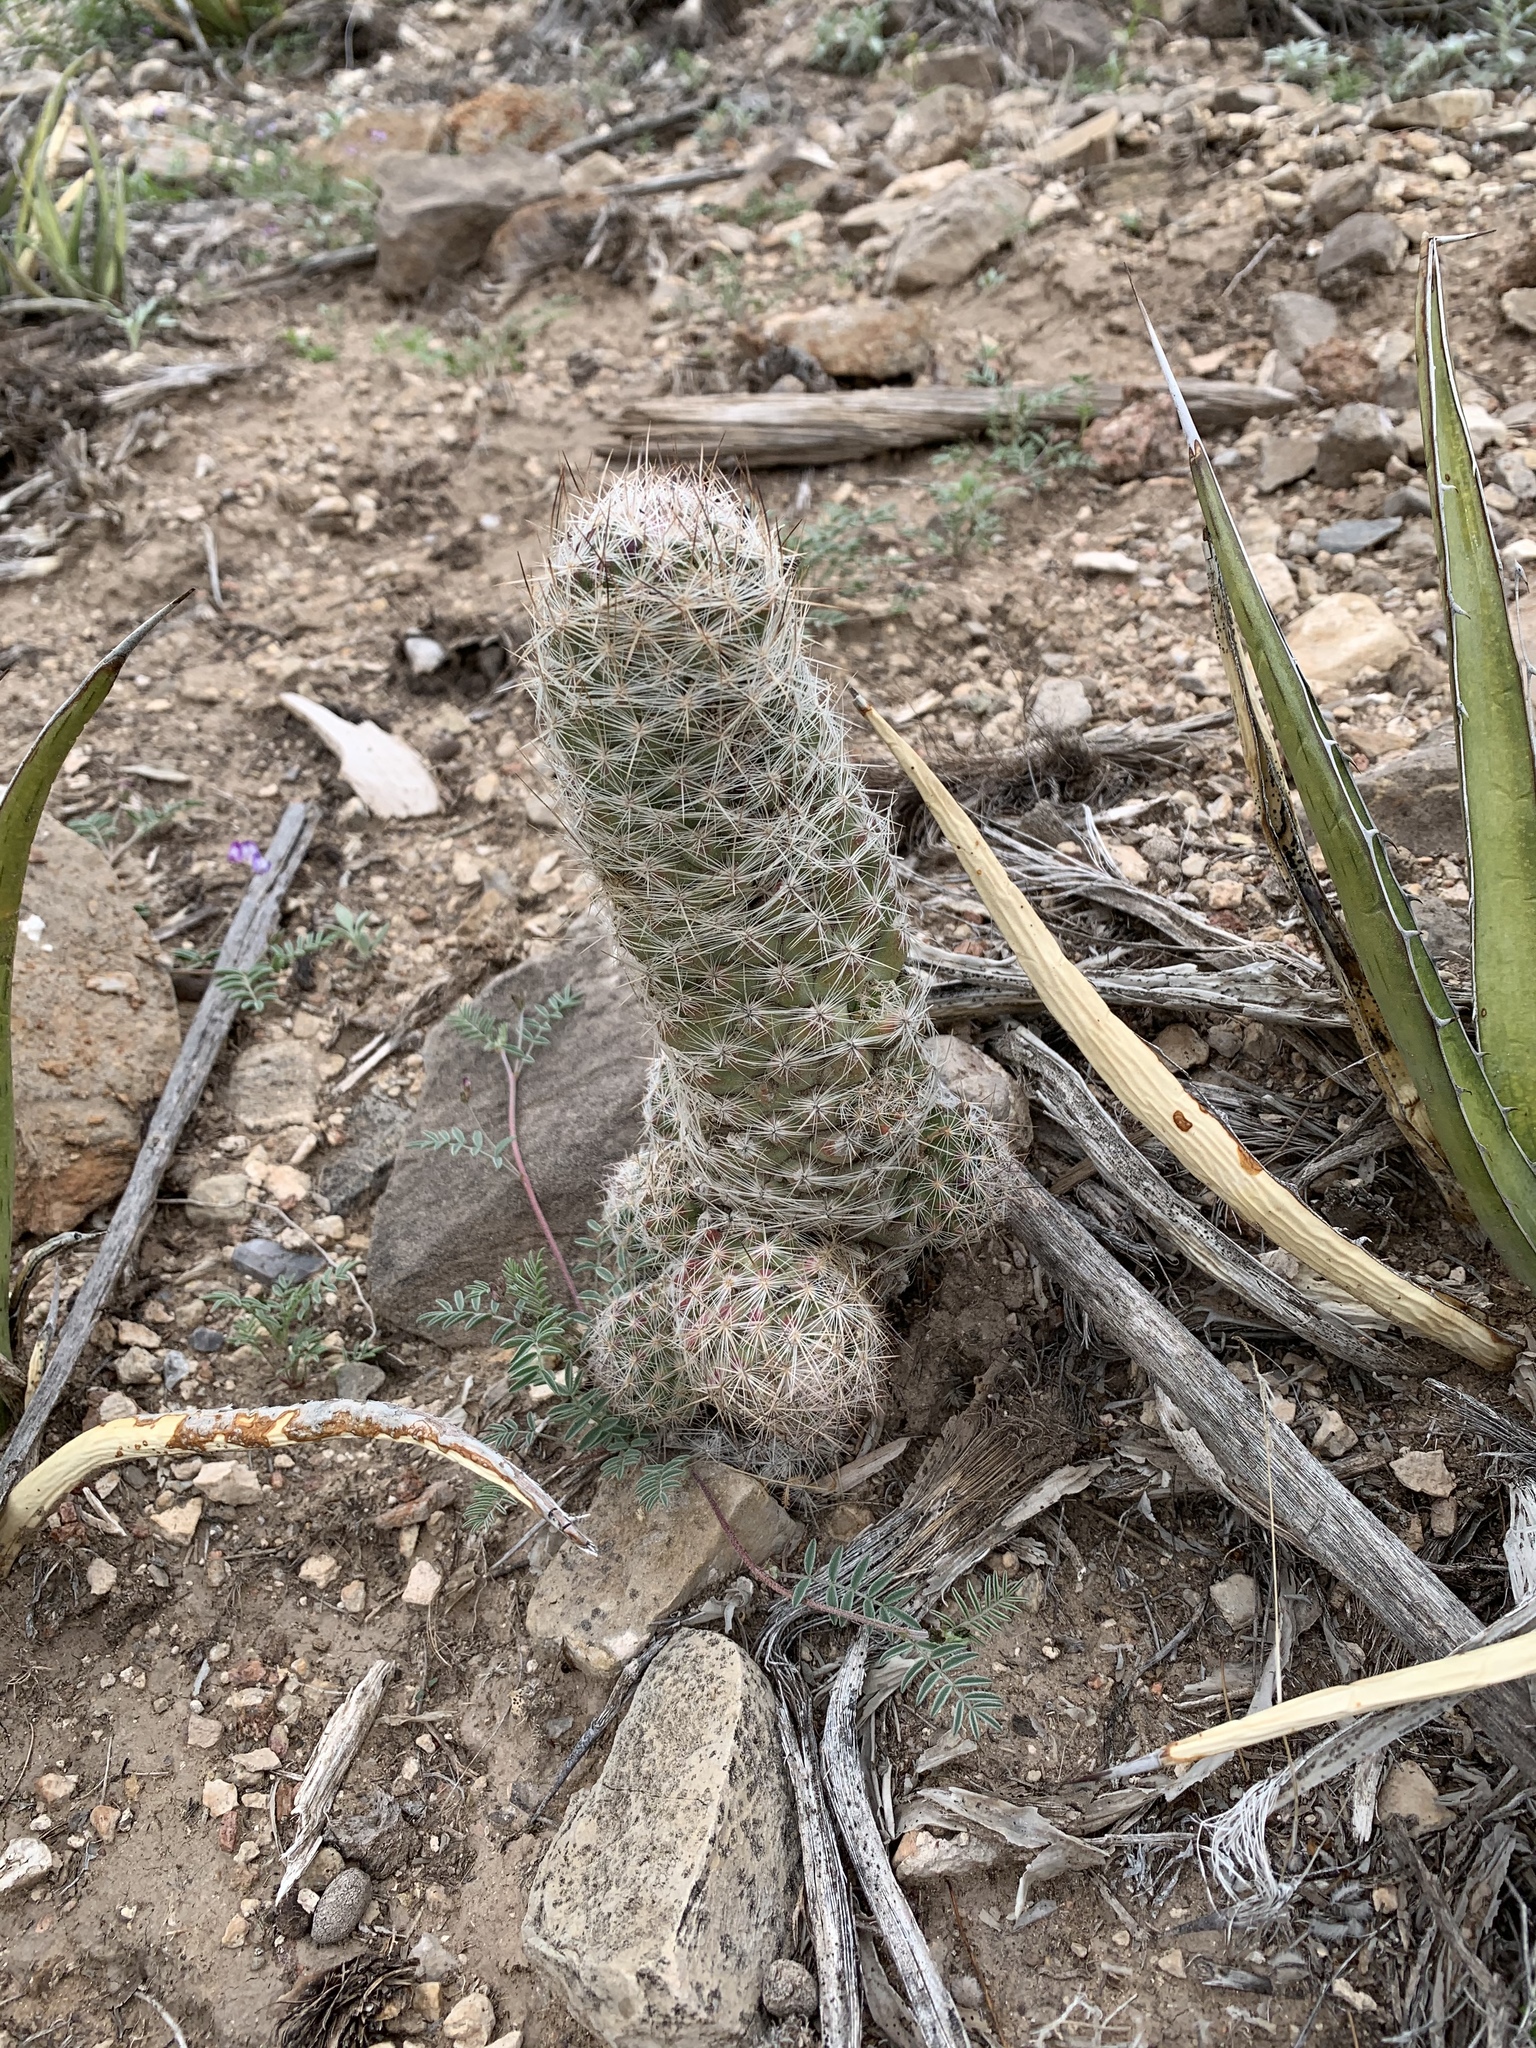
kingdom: Plantae
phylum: Tracheophyta
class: Magnoliopsida
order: Caryophyllales
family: Cactaceae
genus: Pelecyphora
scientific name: Pelecyphora tuberculosa
